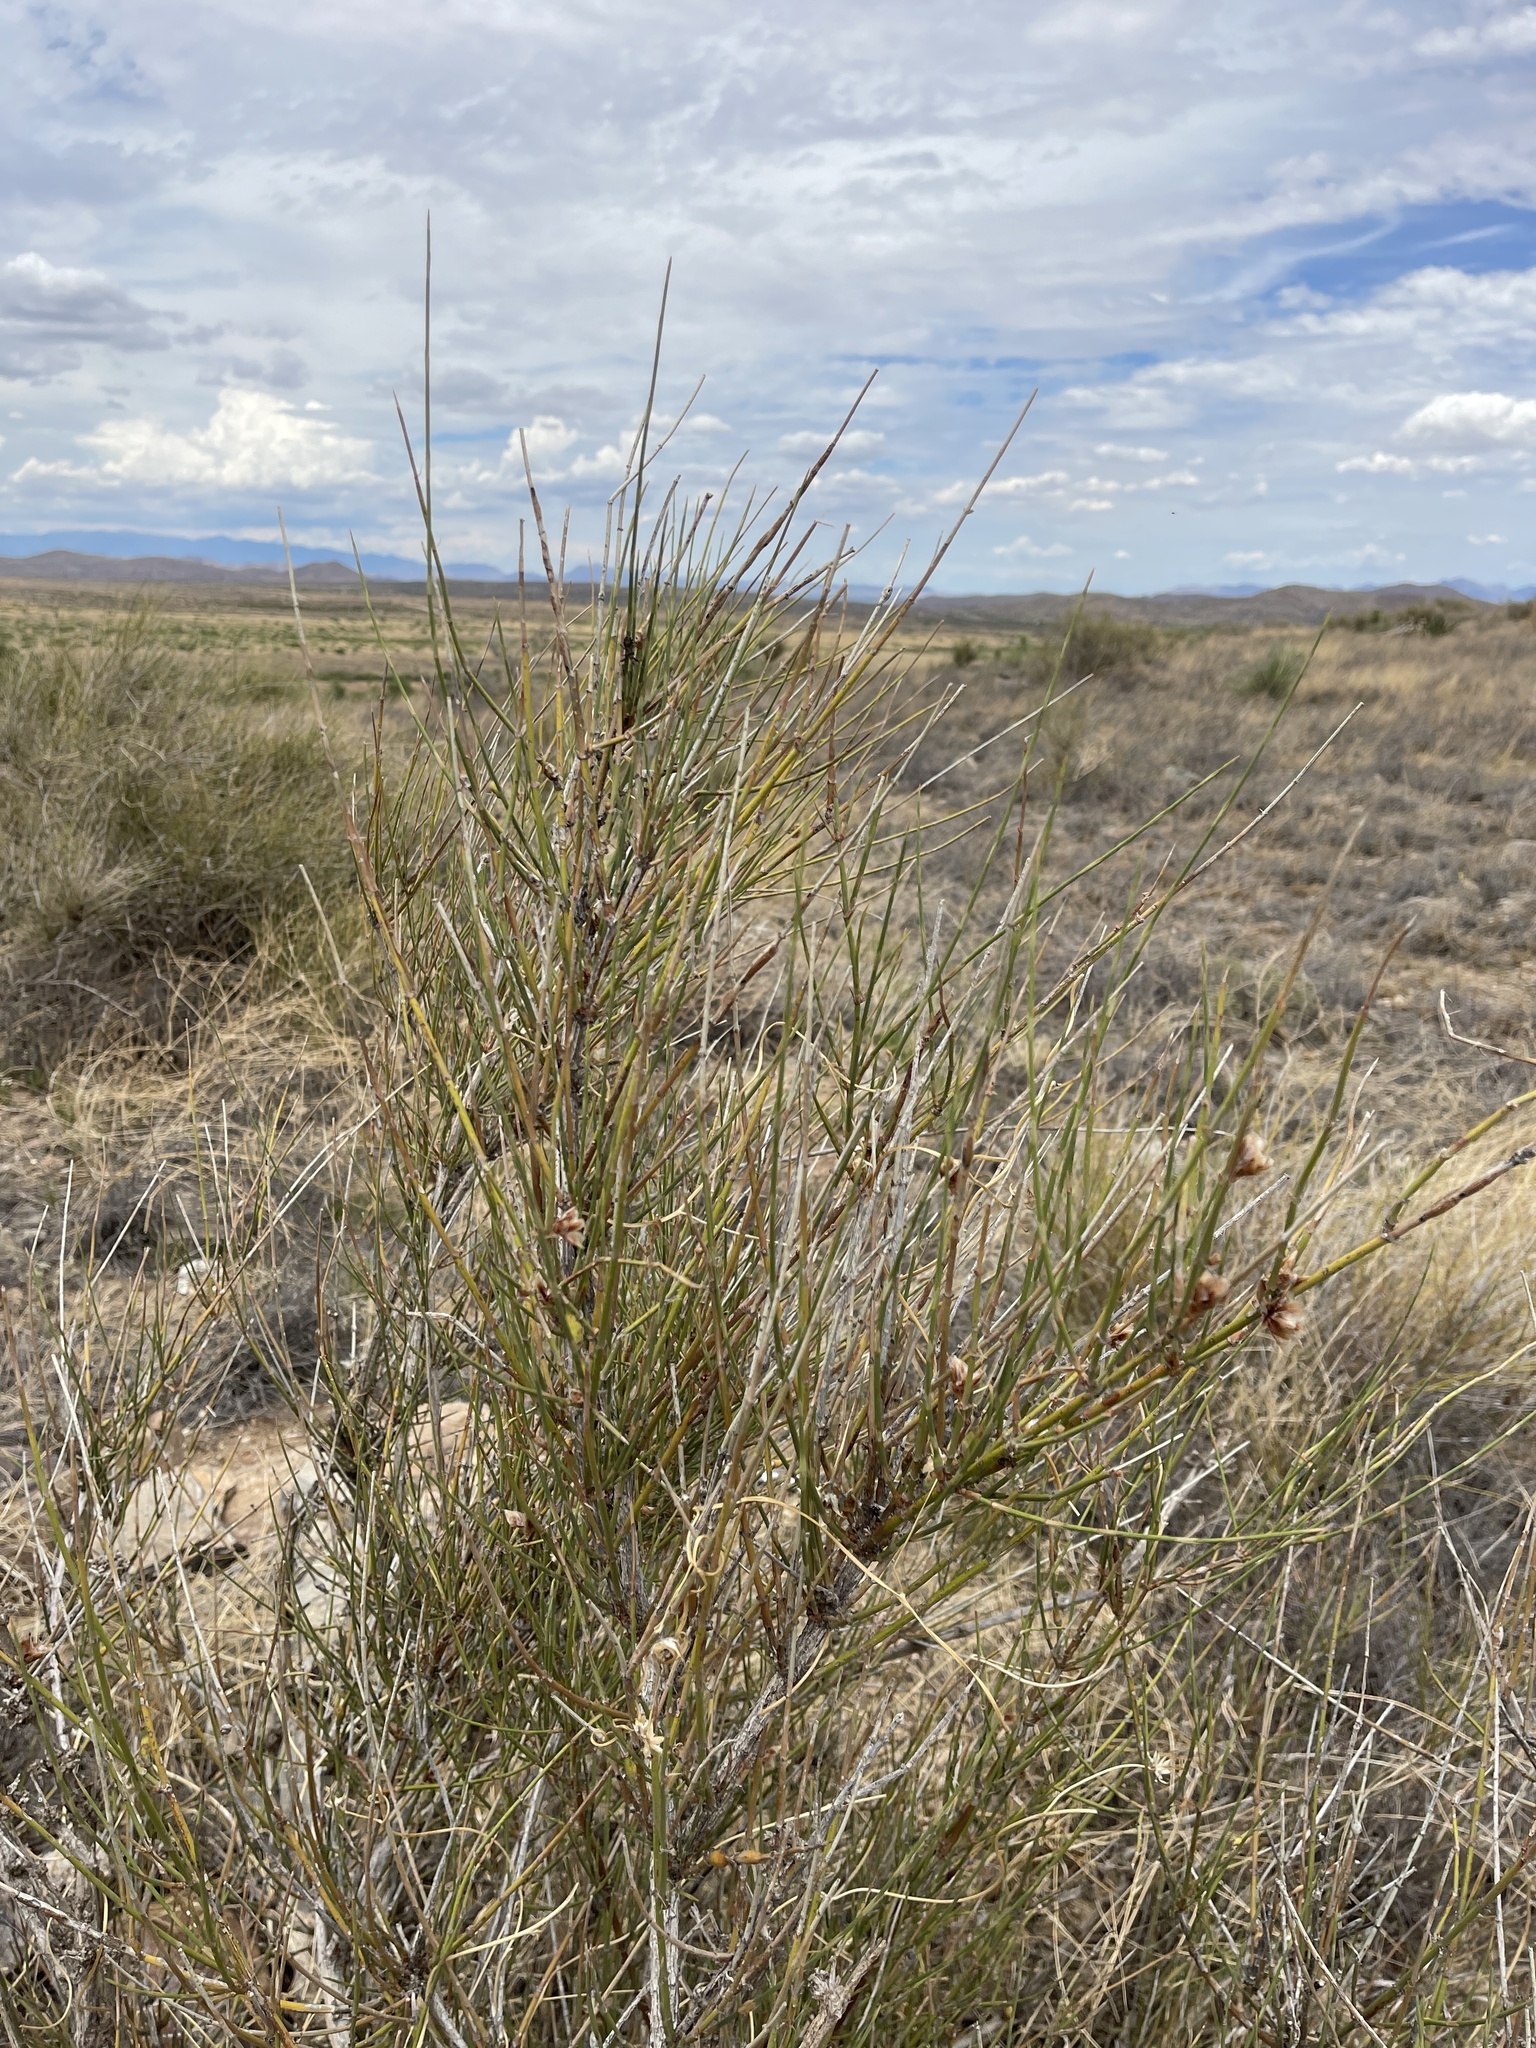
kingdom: Plantae
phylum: Tracheophyta
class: Gnetopsida
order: Ephedrales
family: Ephedraceae
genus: Ephedra
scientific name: Ephedra trifurca
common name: Mexican-tea
